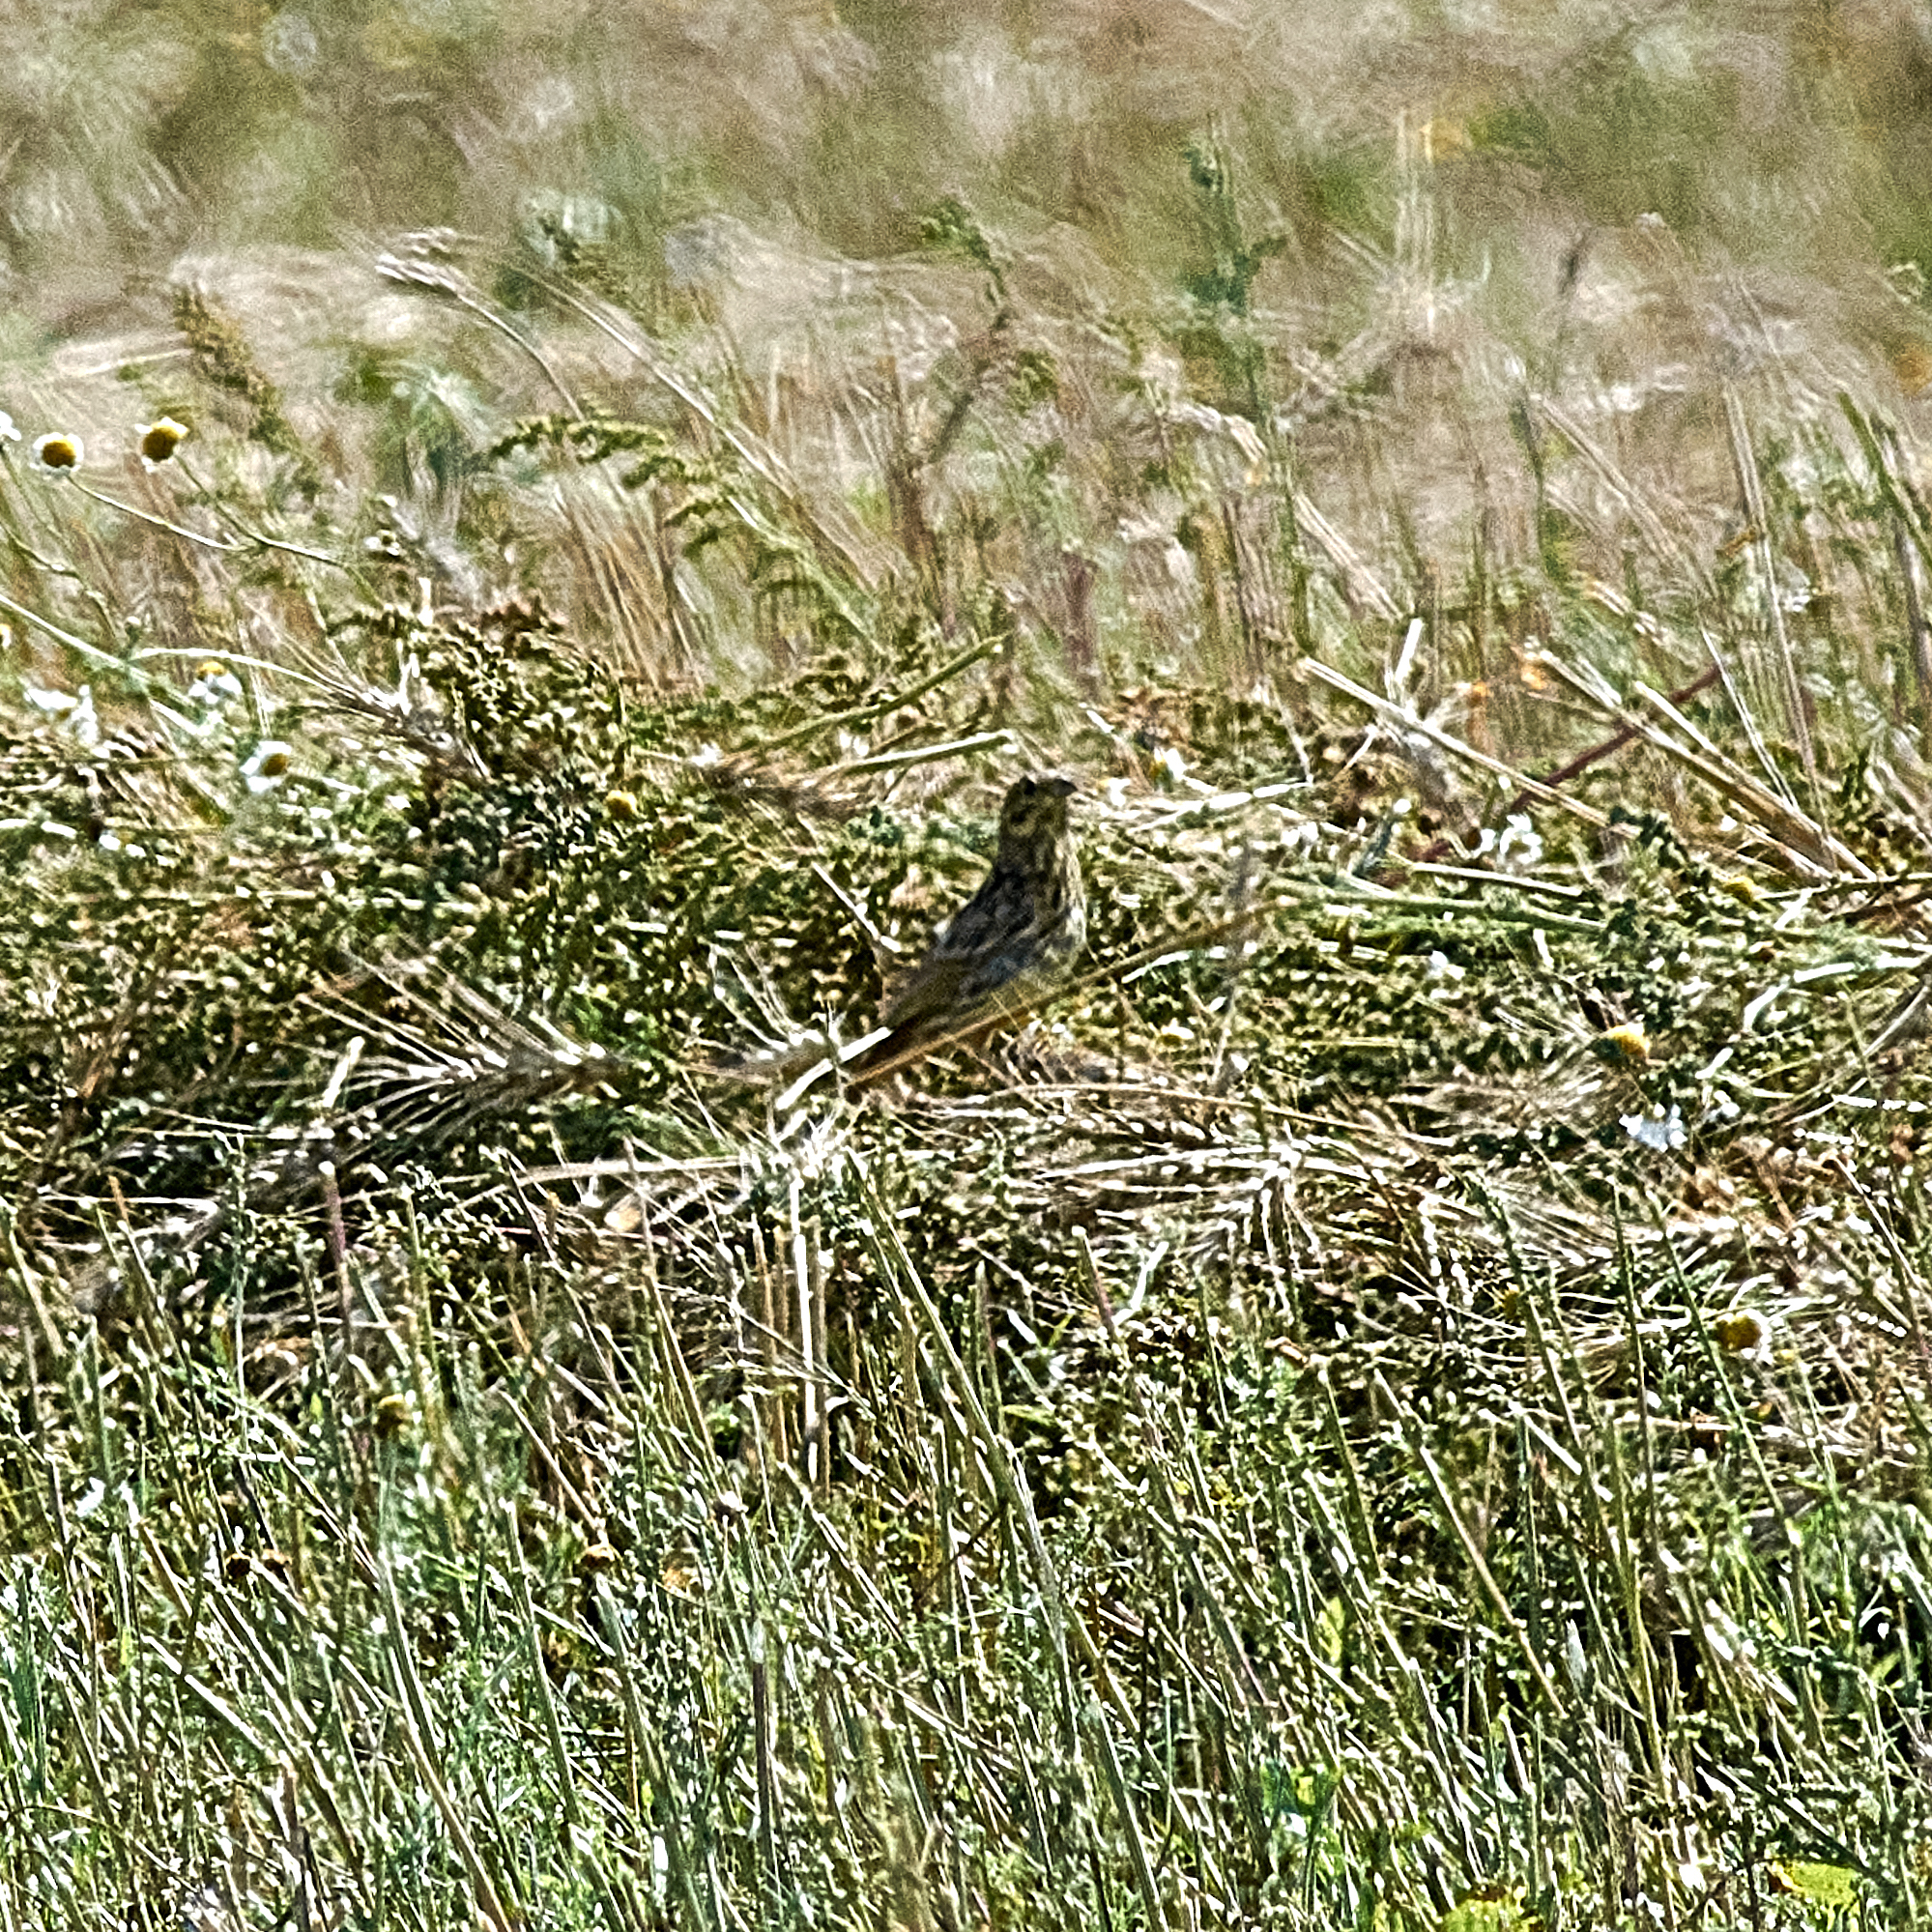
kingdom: Animalia
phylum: Chordata
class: Aves
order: Passeriformes
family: Emberizidae
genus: Emberiza
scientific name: Emberiza citrinella
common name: Yellowhammer
